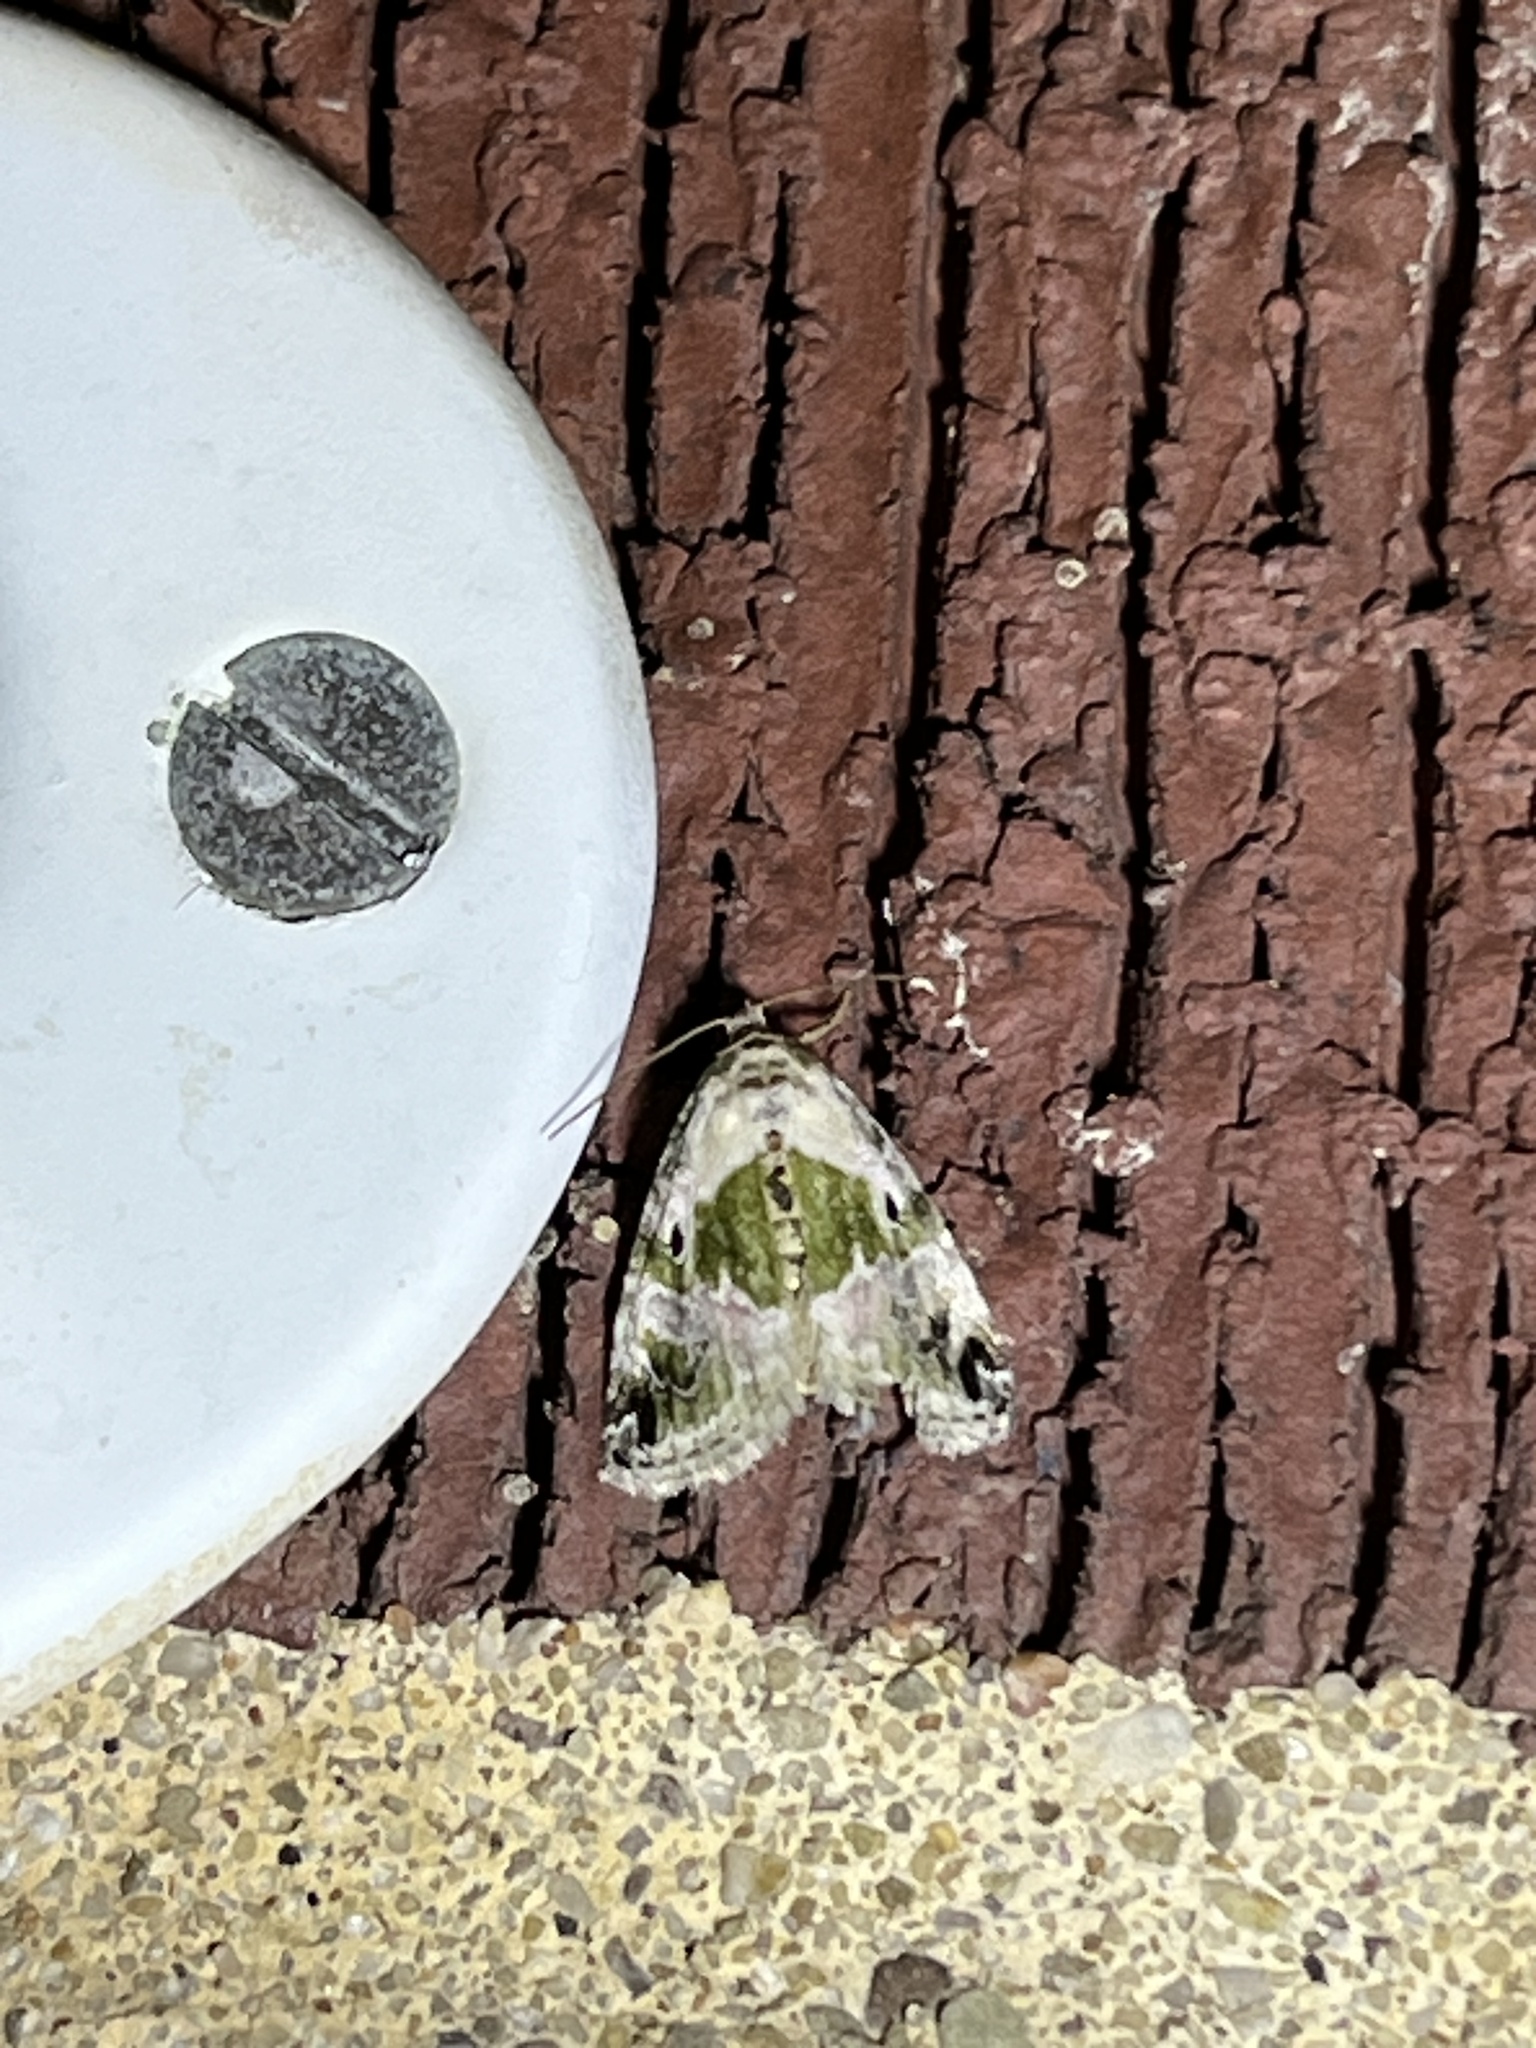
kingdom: Animalia
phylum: Arthropoda
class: Insecta
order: Lepidoptera
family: Noctuidae
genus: Maliattha
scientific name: Maliattha synochitis
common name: Black-dotted glyph
